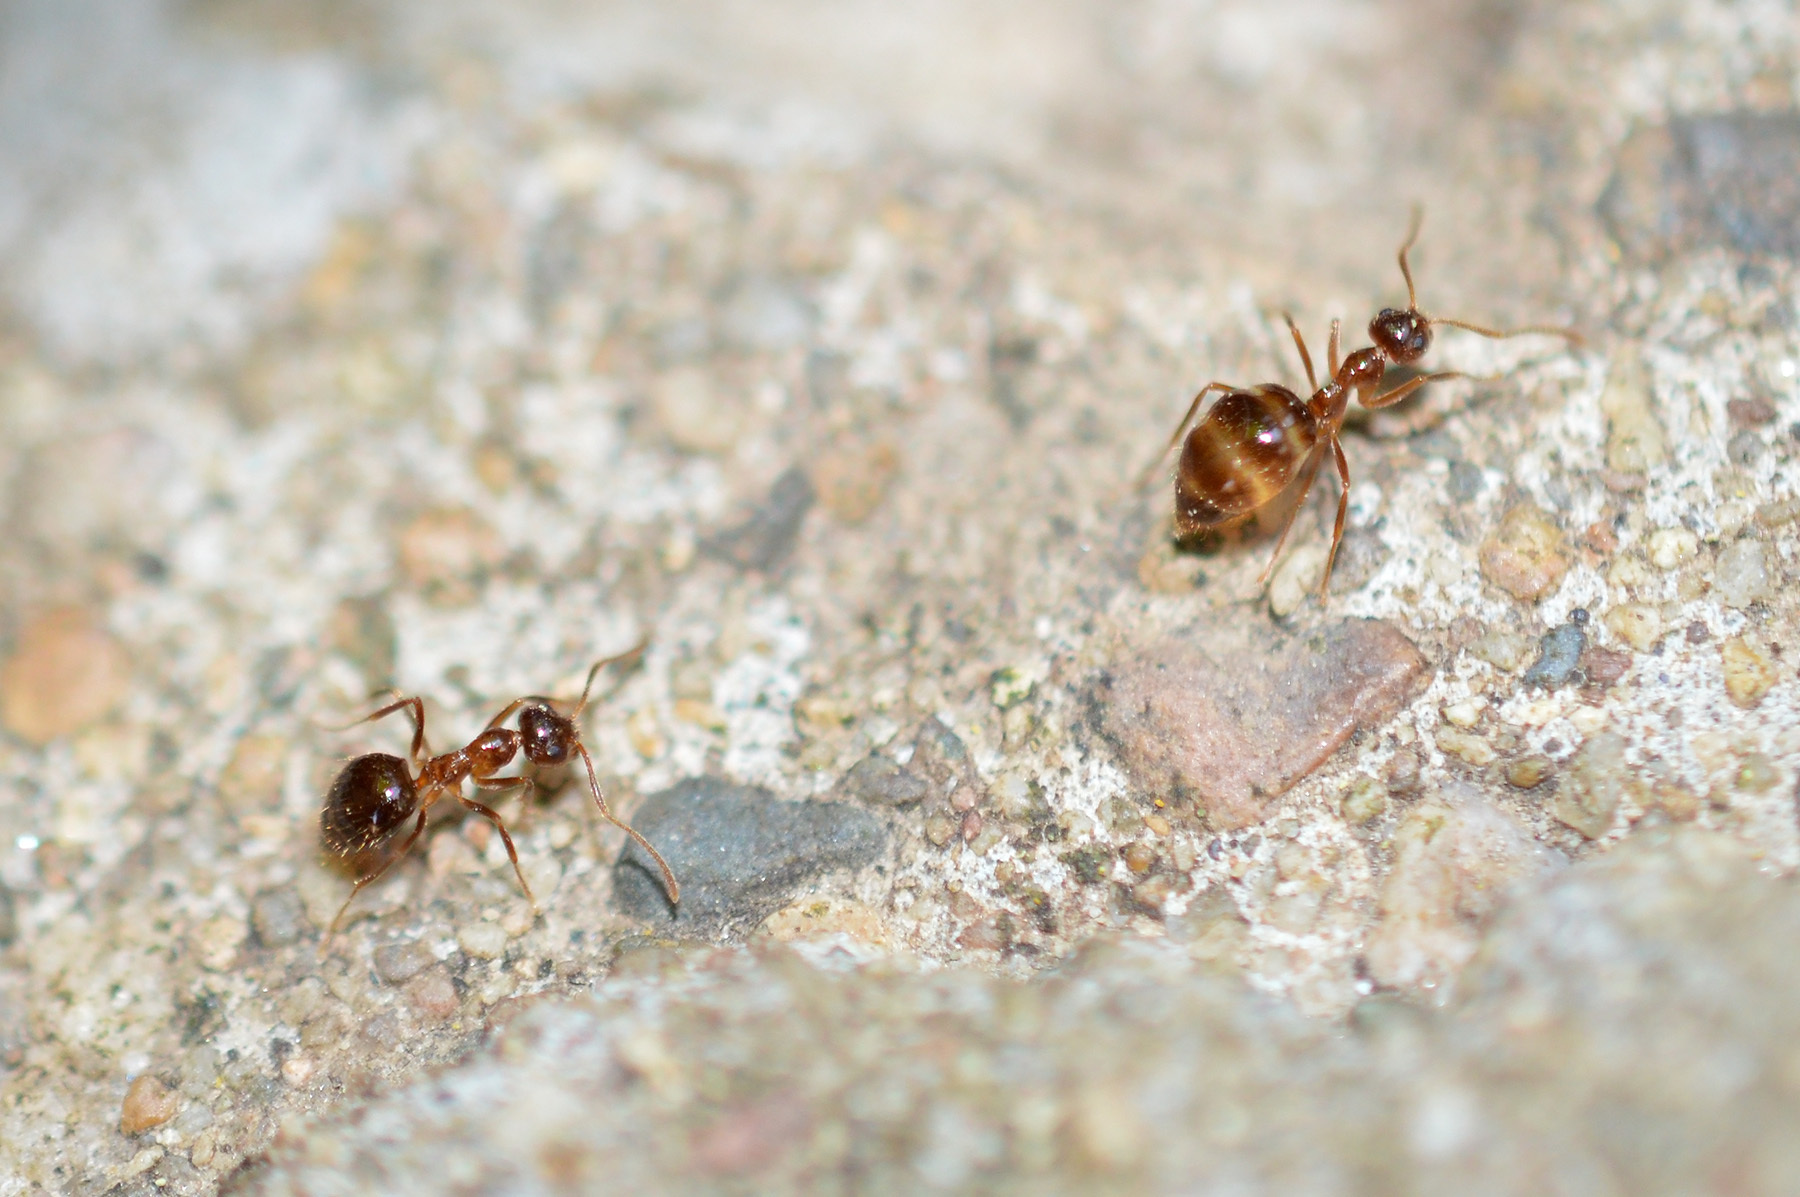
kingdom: Animalia
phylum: Arthropoda
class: Insecta
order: Hymenoptera
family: Formicidae
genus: Prenolepis
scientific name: Prenolepis nitens
